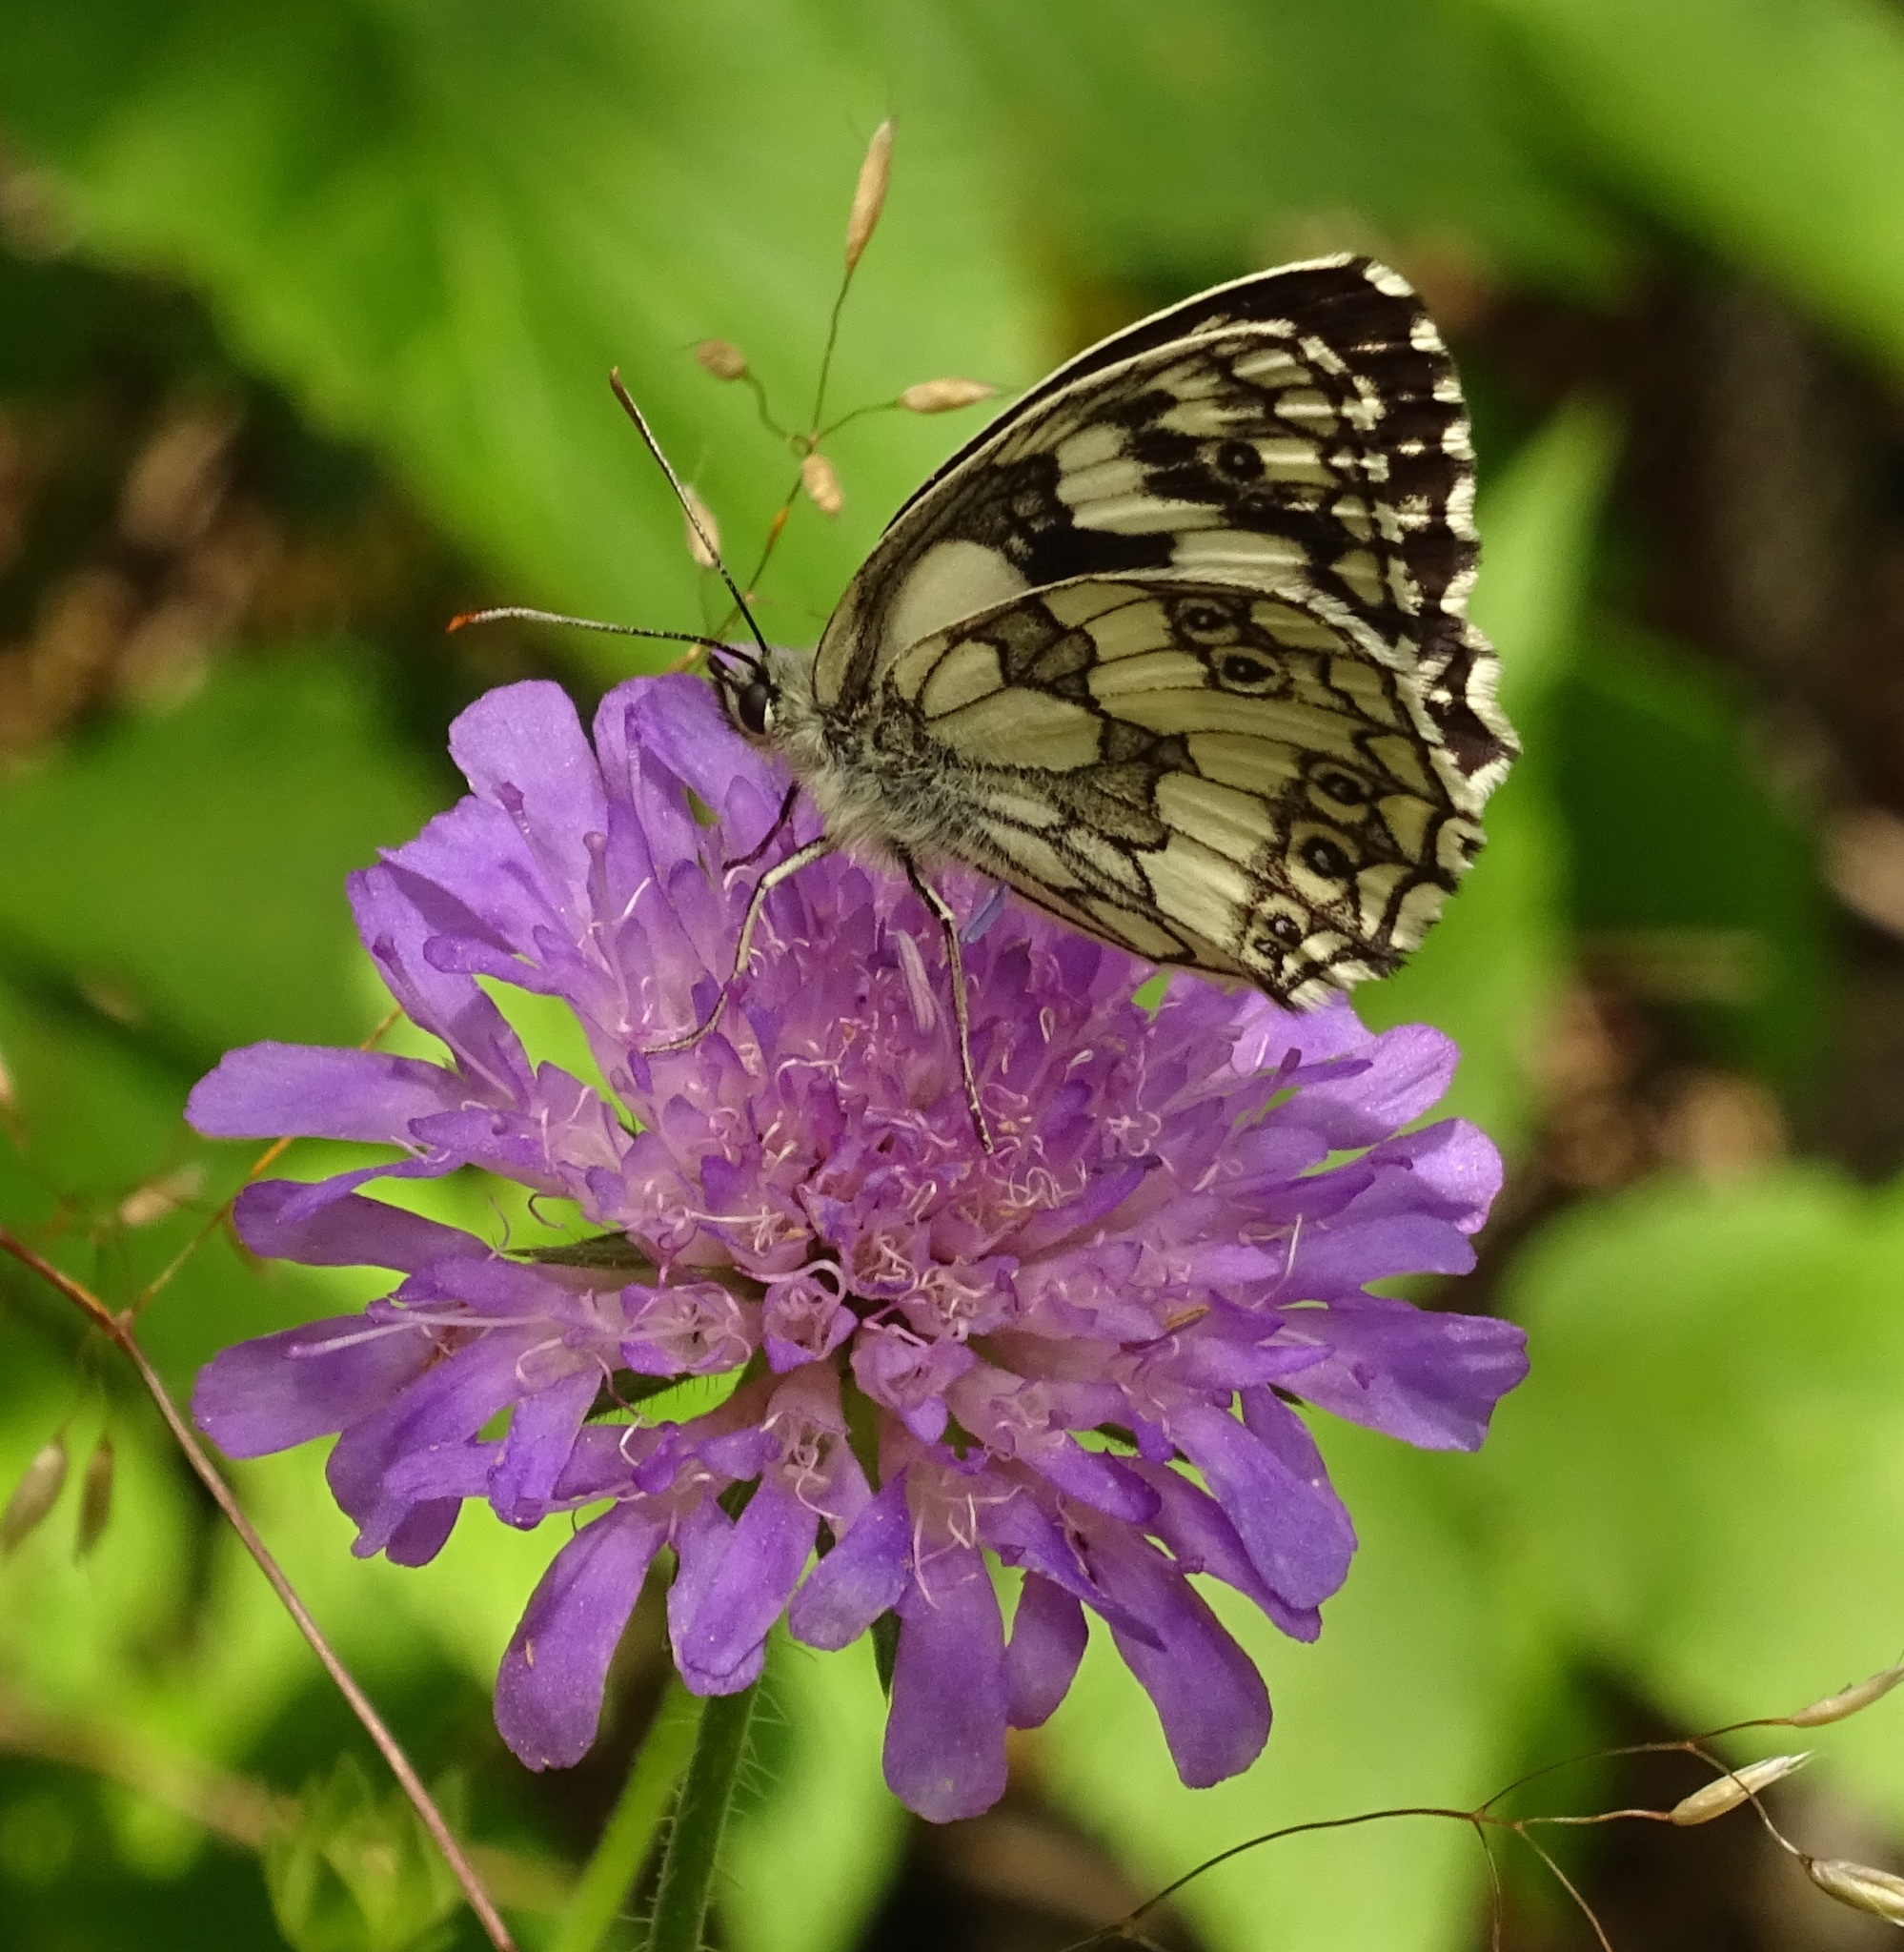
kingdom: Animalia
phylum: Arthropoda
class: Insecta
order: Lepidoptera
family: Nymphalidae
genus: Melanargia
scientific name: Melanargia galathea
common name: Marbled white
